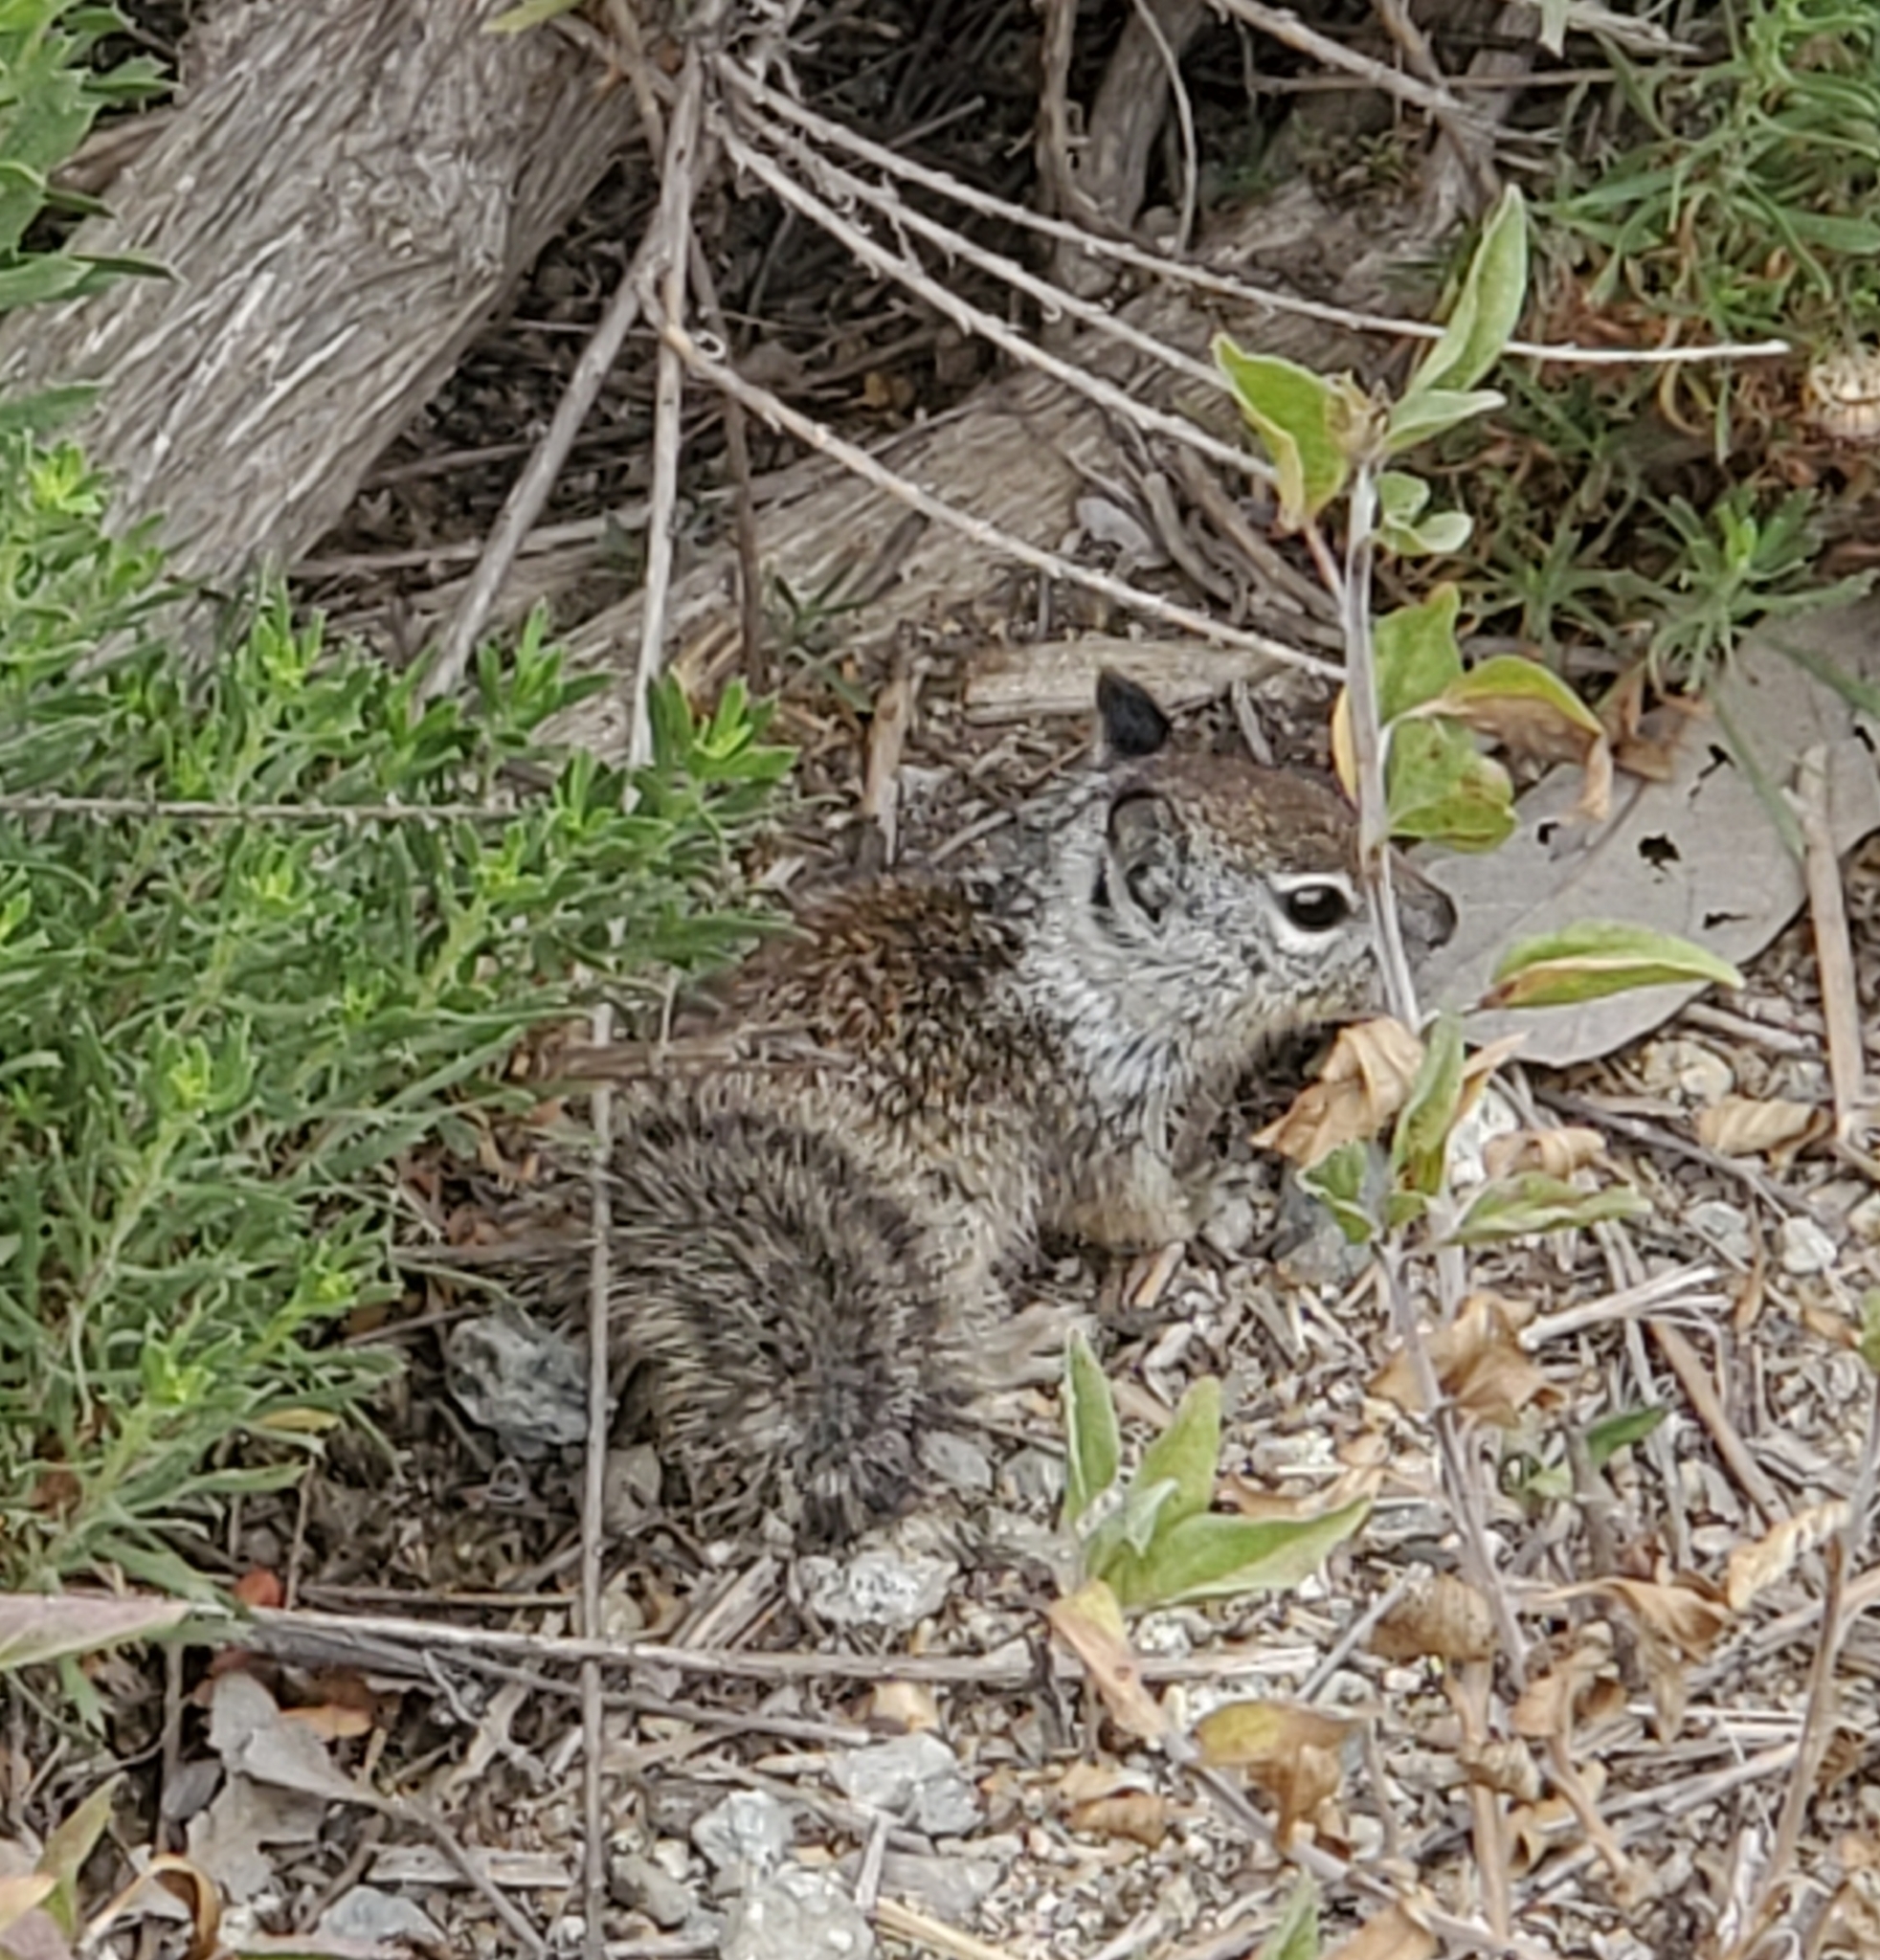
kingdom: Animalia
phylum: Chordata
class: Mammalia
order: Rodentia
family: Sciuridae
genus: Otospermophilus
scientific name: Otospermophilus beecheyi
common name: California ground squirrel
